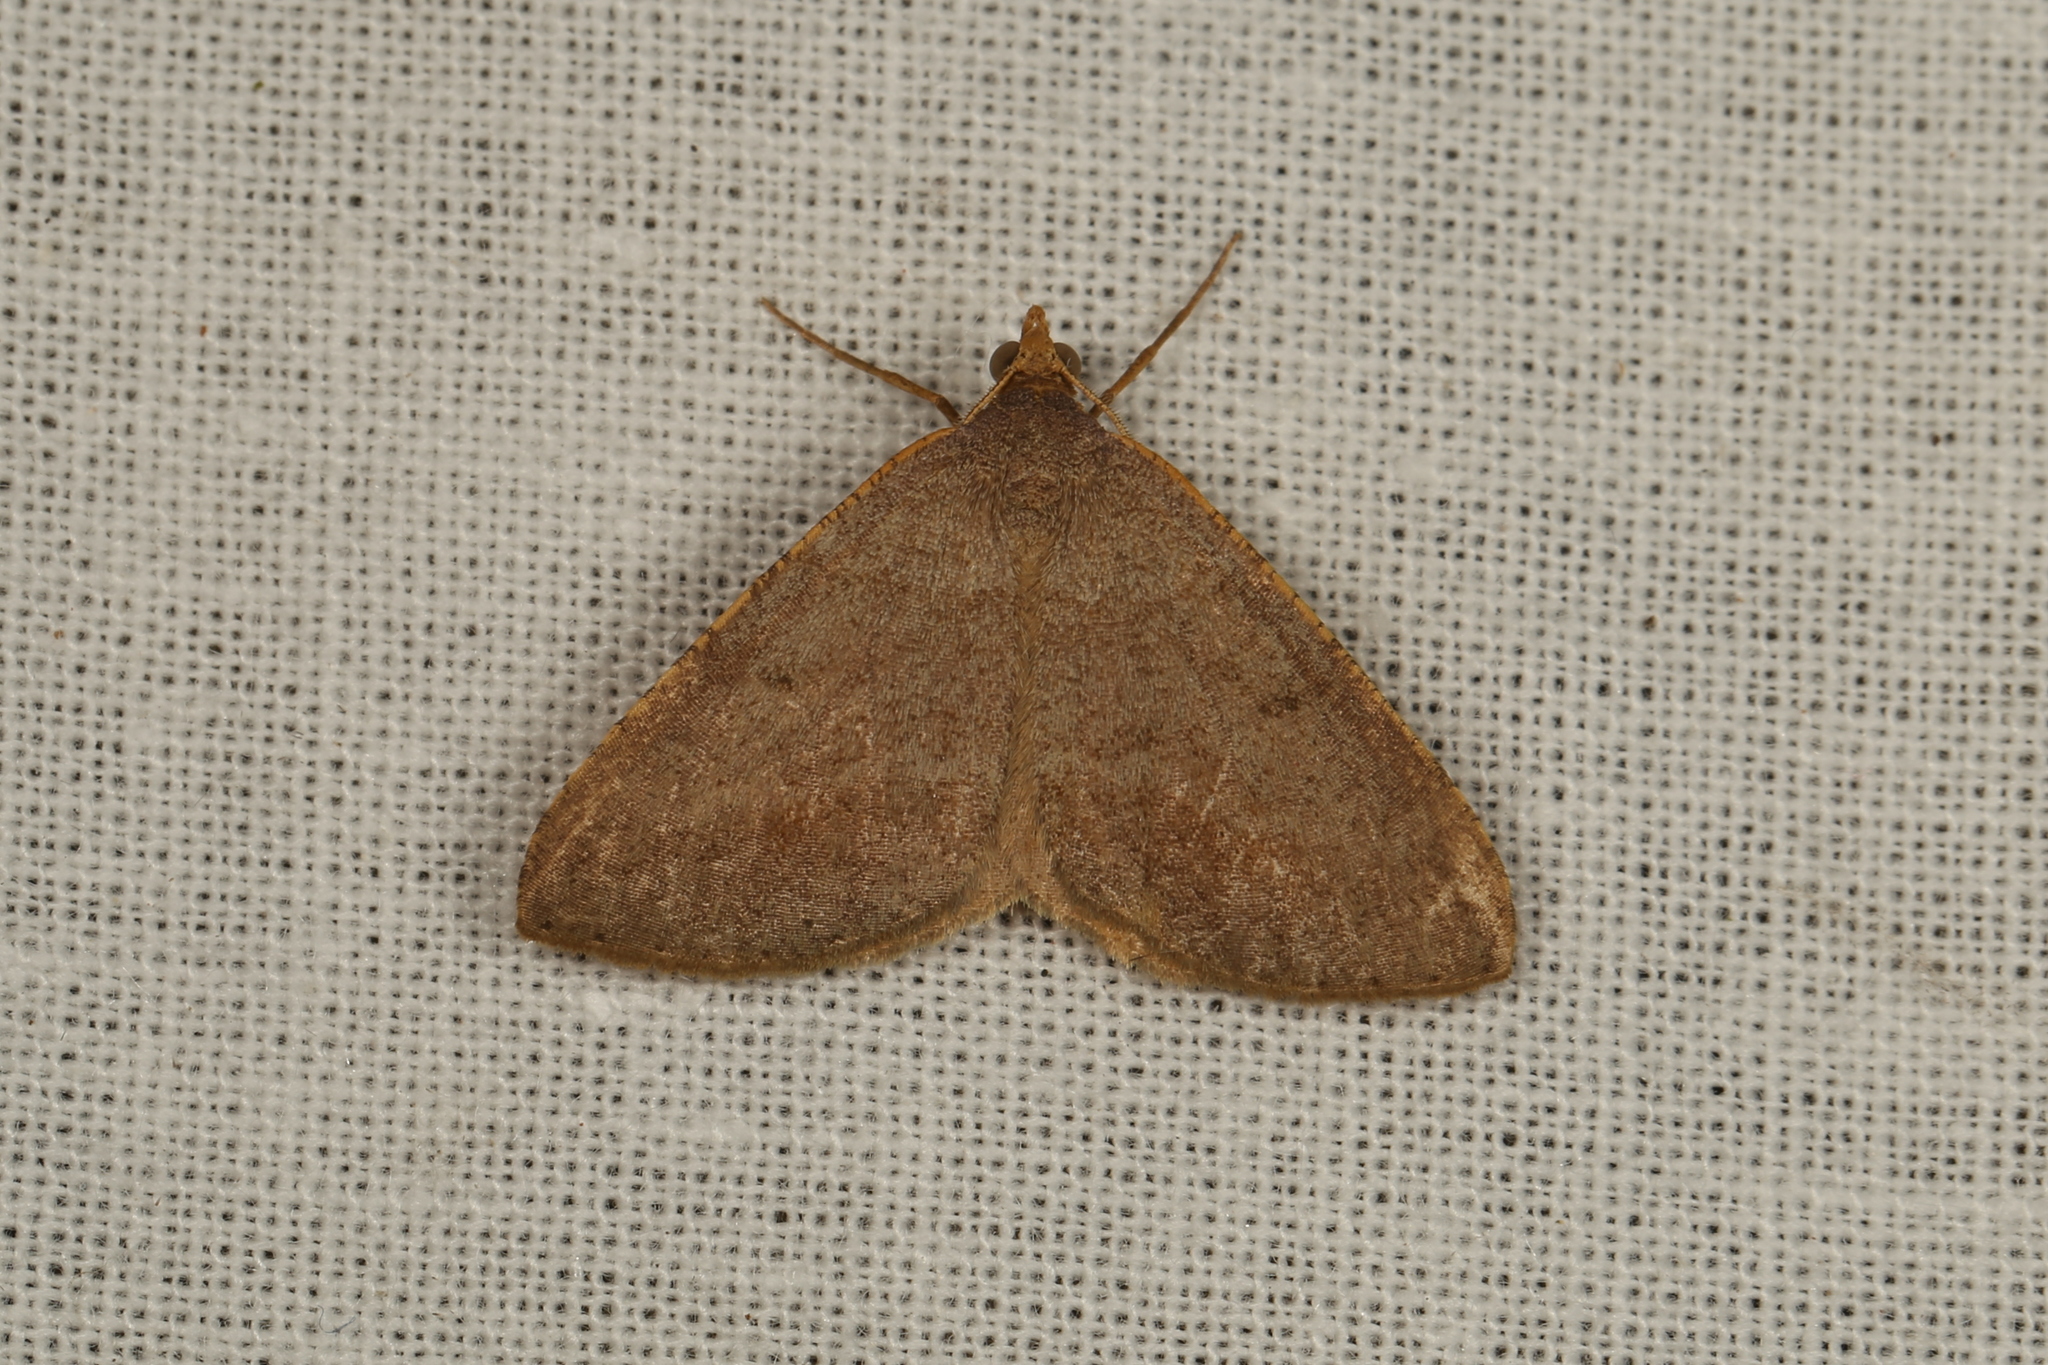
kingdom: Animalia
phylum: Arthropoda
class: Insecta
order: Lepidoptera
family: Geometridae
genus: Parosteodes
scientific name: Parosteodes fictiliaria
